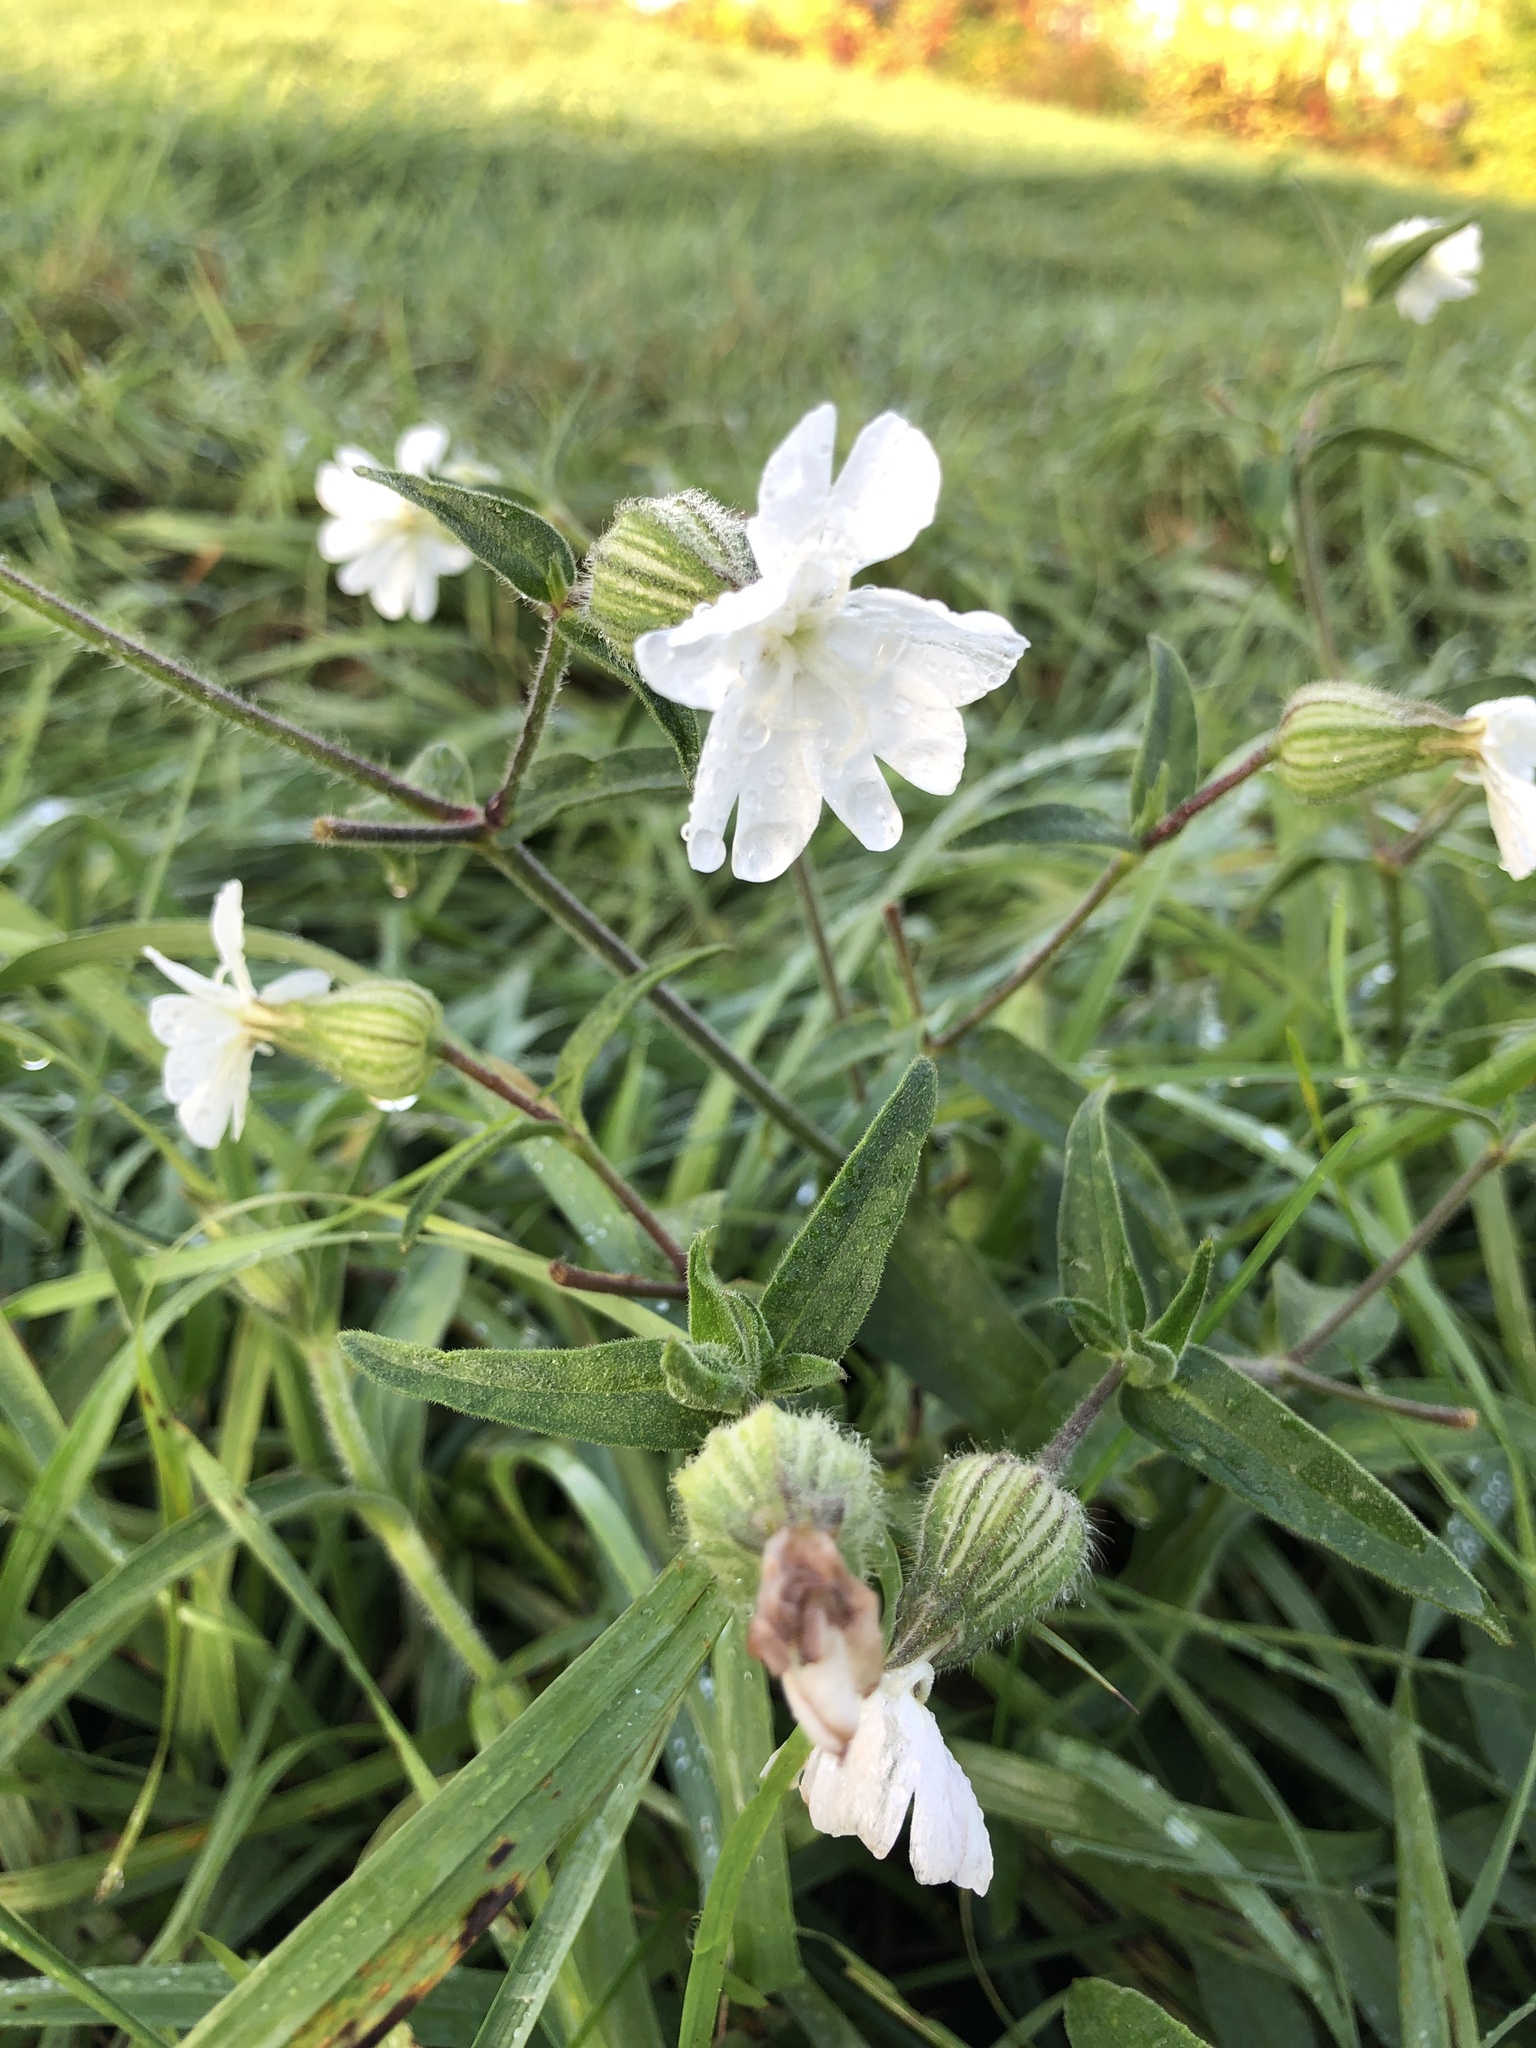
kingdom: Plantae
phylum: Tracheophyta
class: Magnoliopsida
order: Caryophyllales
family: Caryophyllaceae
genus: Silene
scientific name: Silene latifolia
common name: White campion
